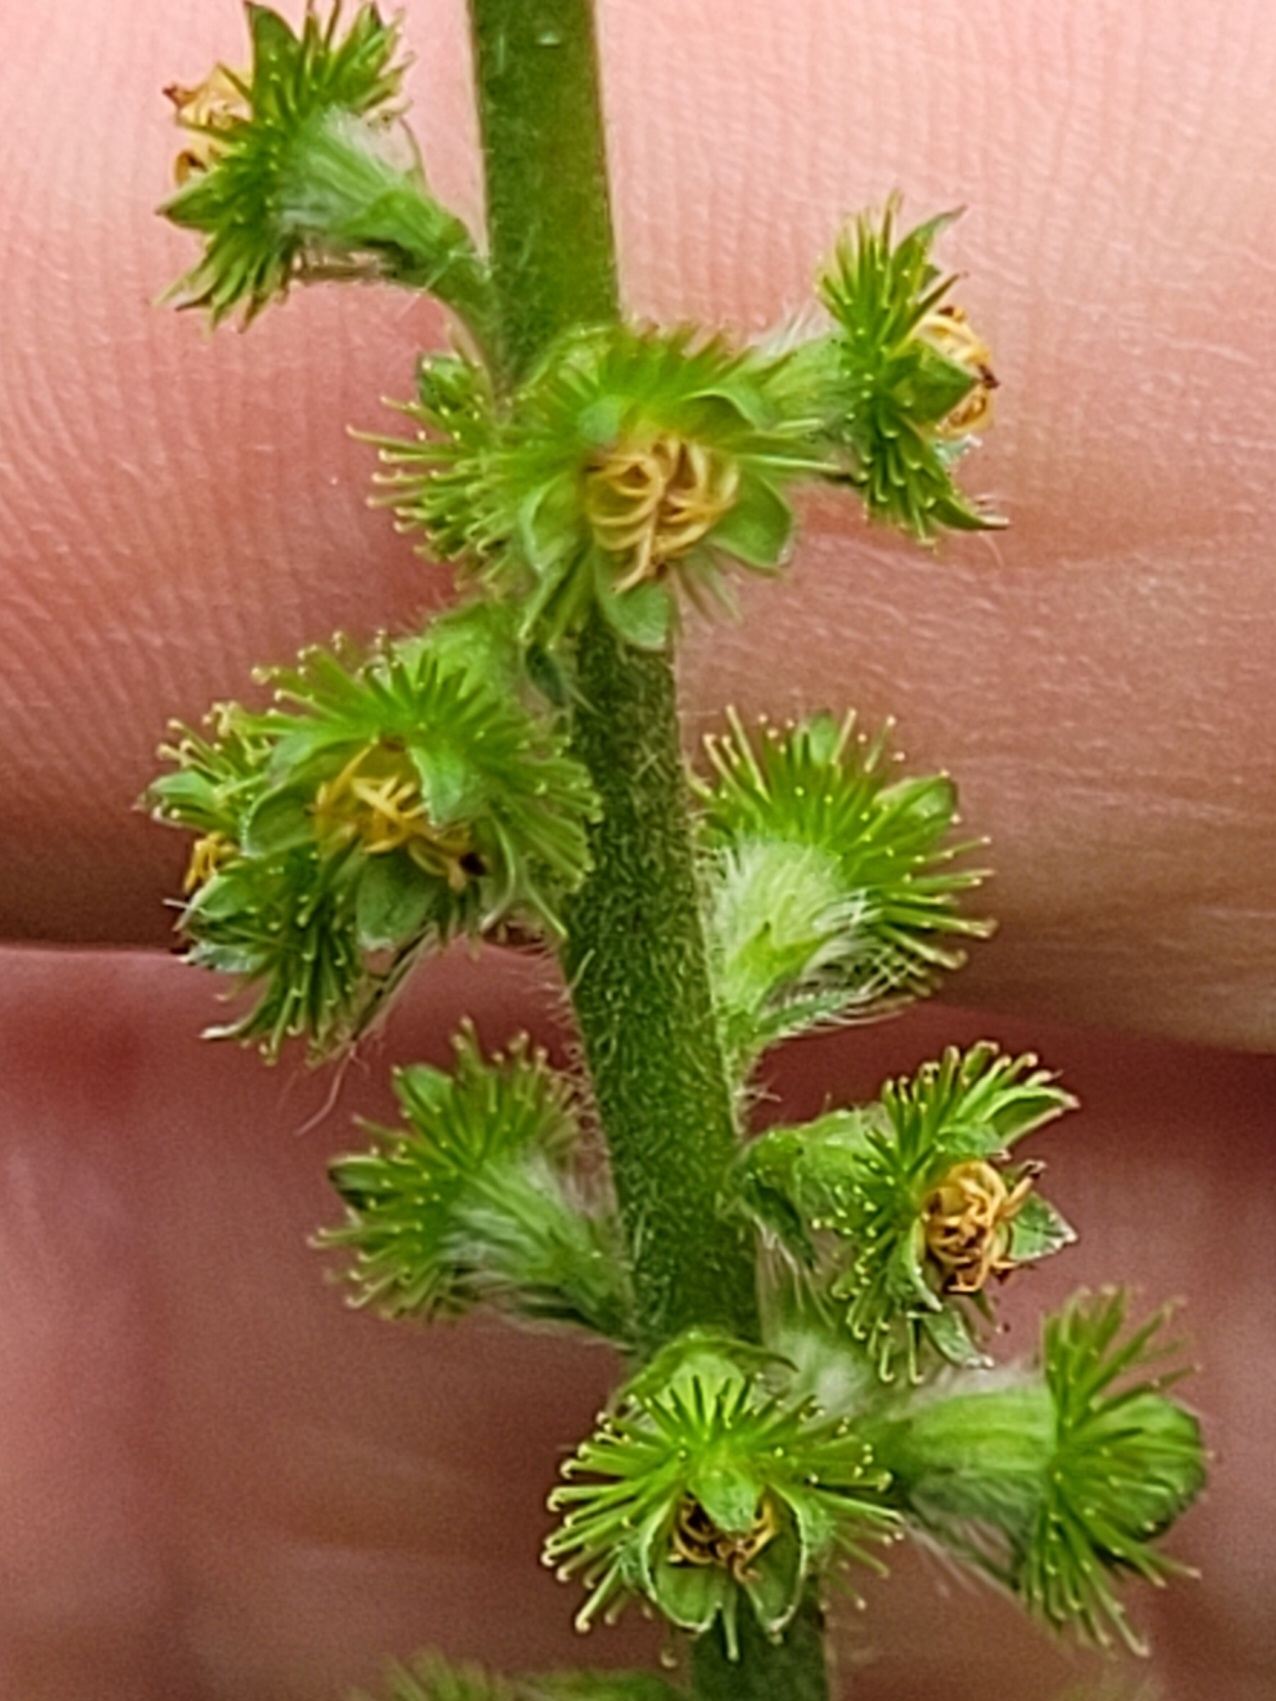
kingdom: Plantae
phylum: Tracheophyta
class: Magnoliopsida
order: Rosales
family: Rosaceae
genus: Agrimonia
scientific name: Agrimonia eupatoria
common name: Agrimony
